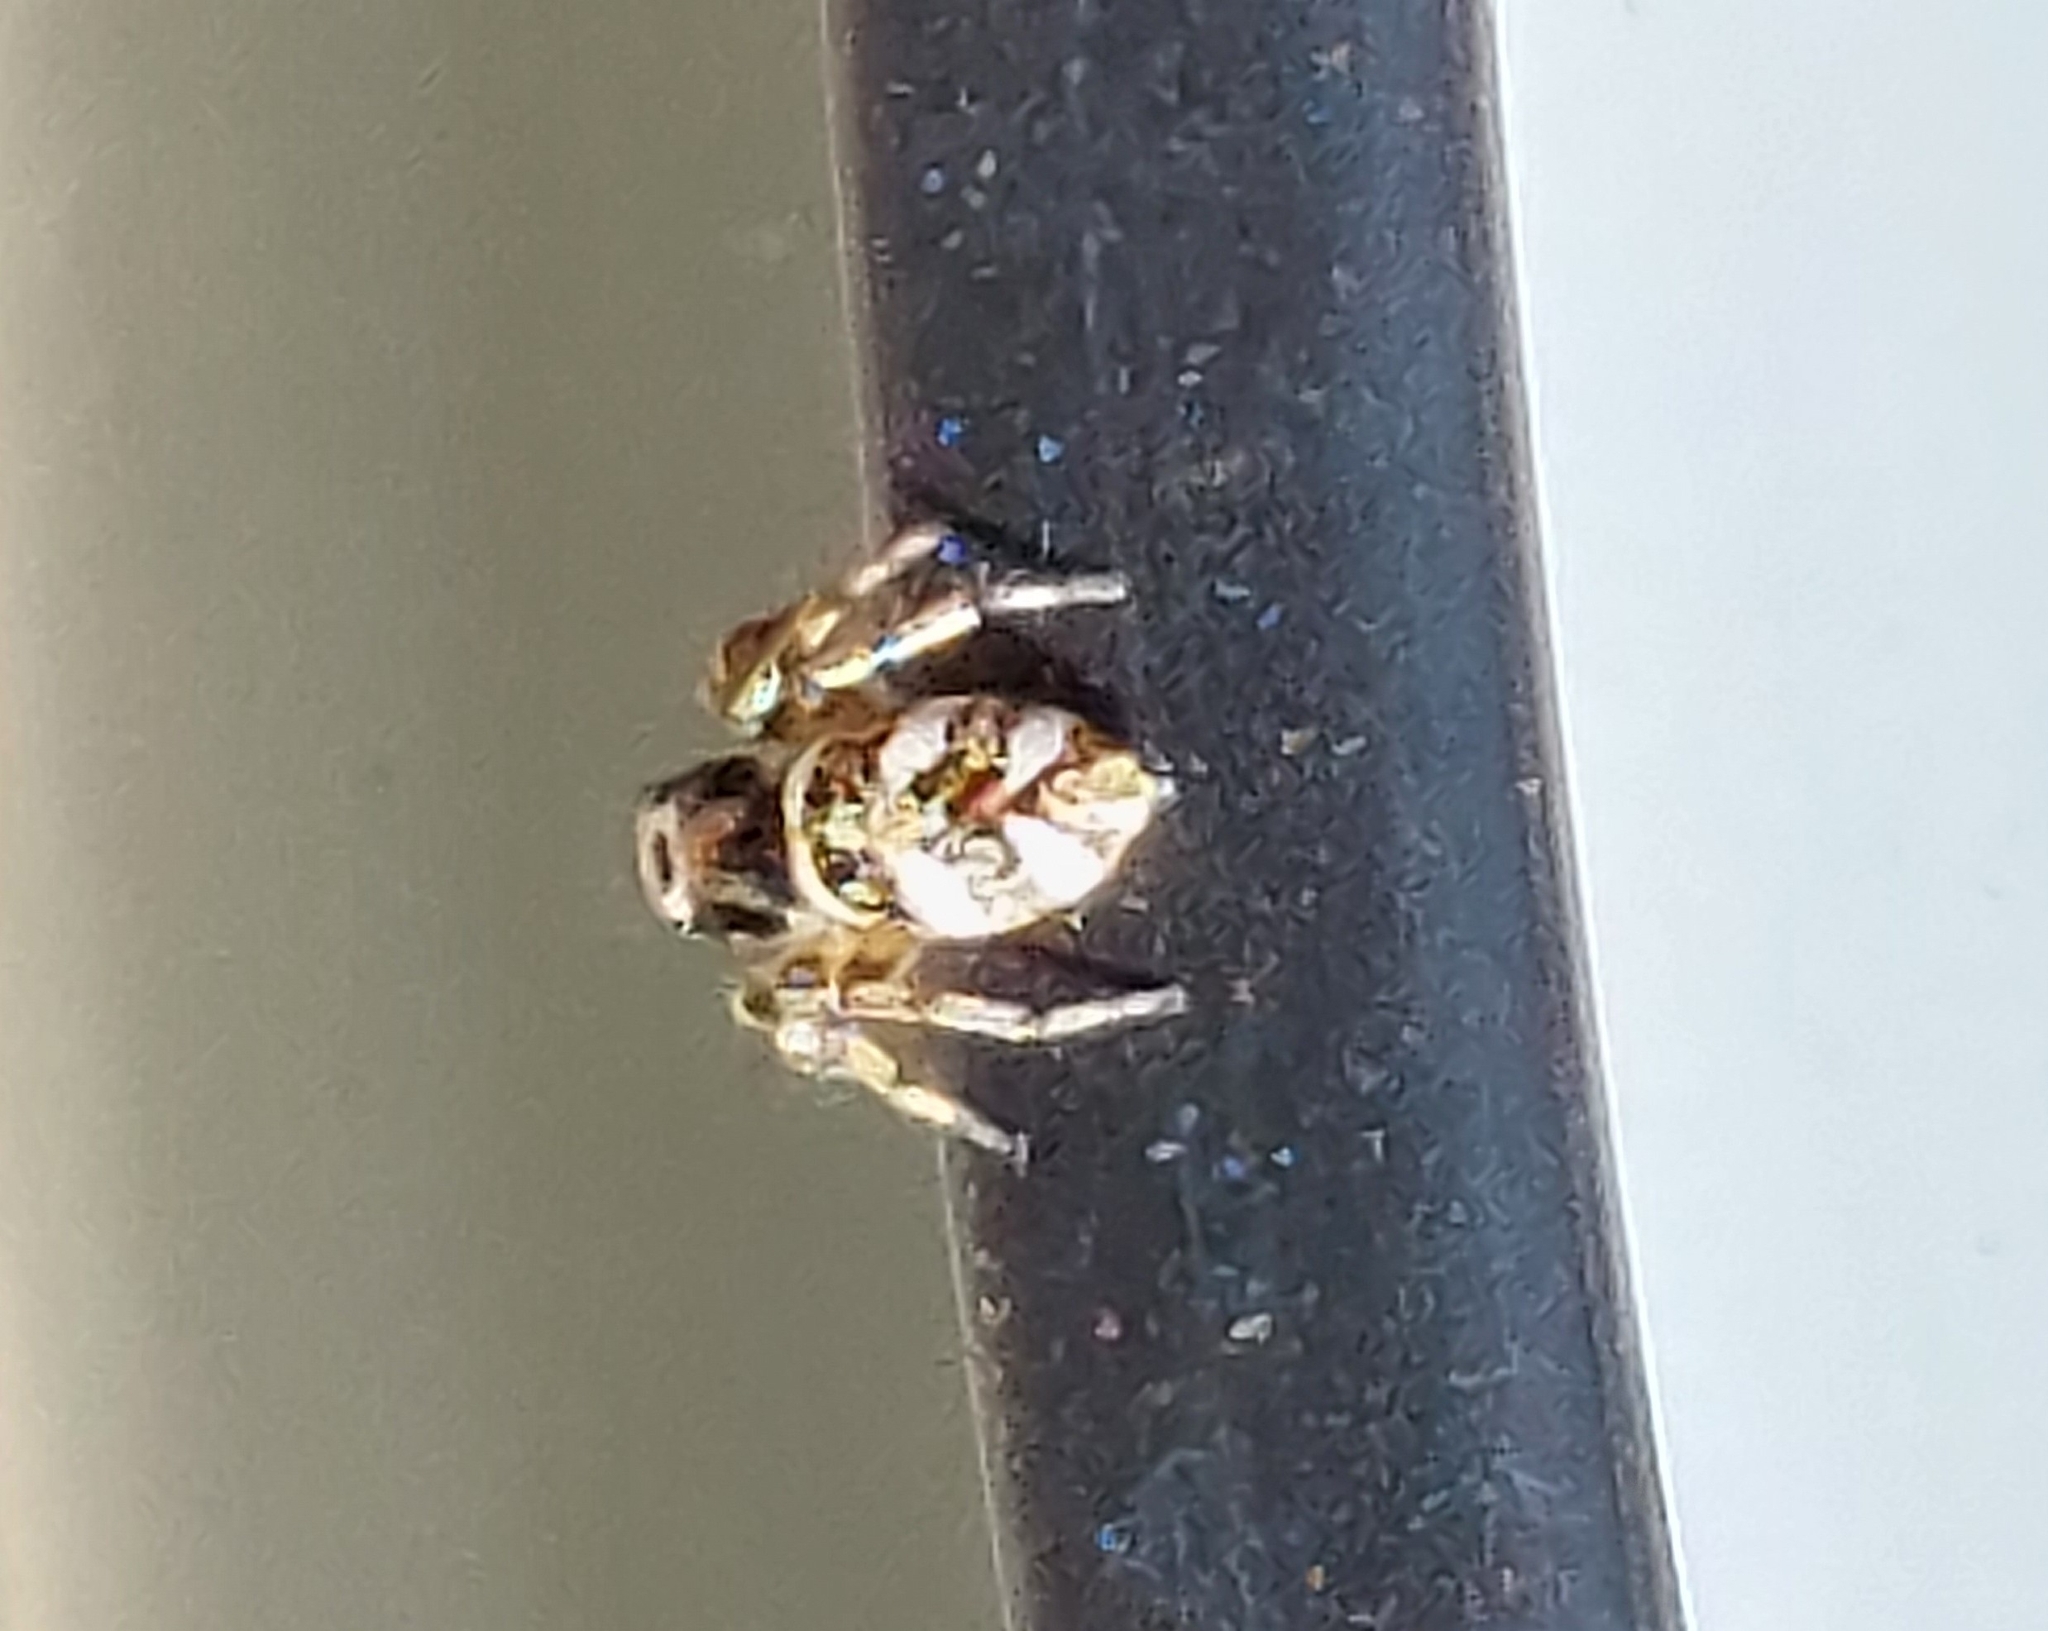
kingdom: Animalia
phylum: Arthropoda
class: Arachnida
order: Araneae
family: Salticidae
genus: Salticus
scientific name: Salticus scenicus
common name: Zebra jumper
